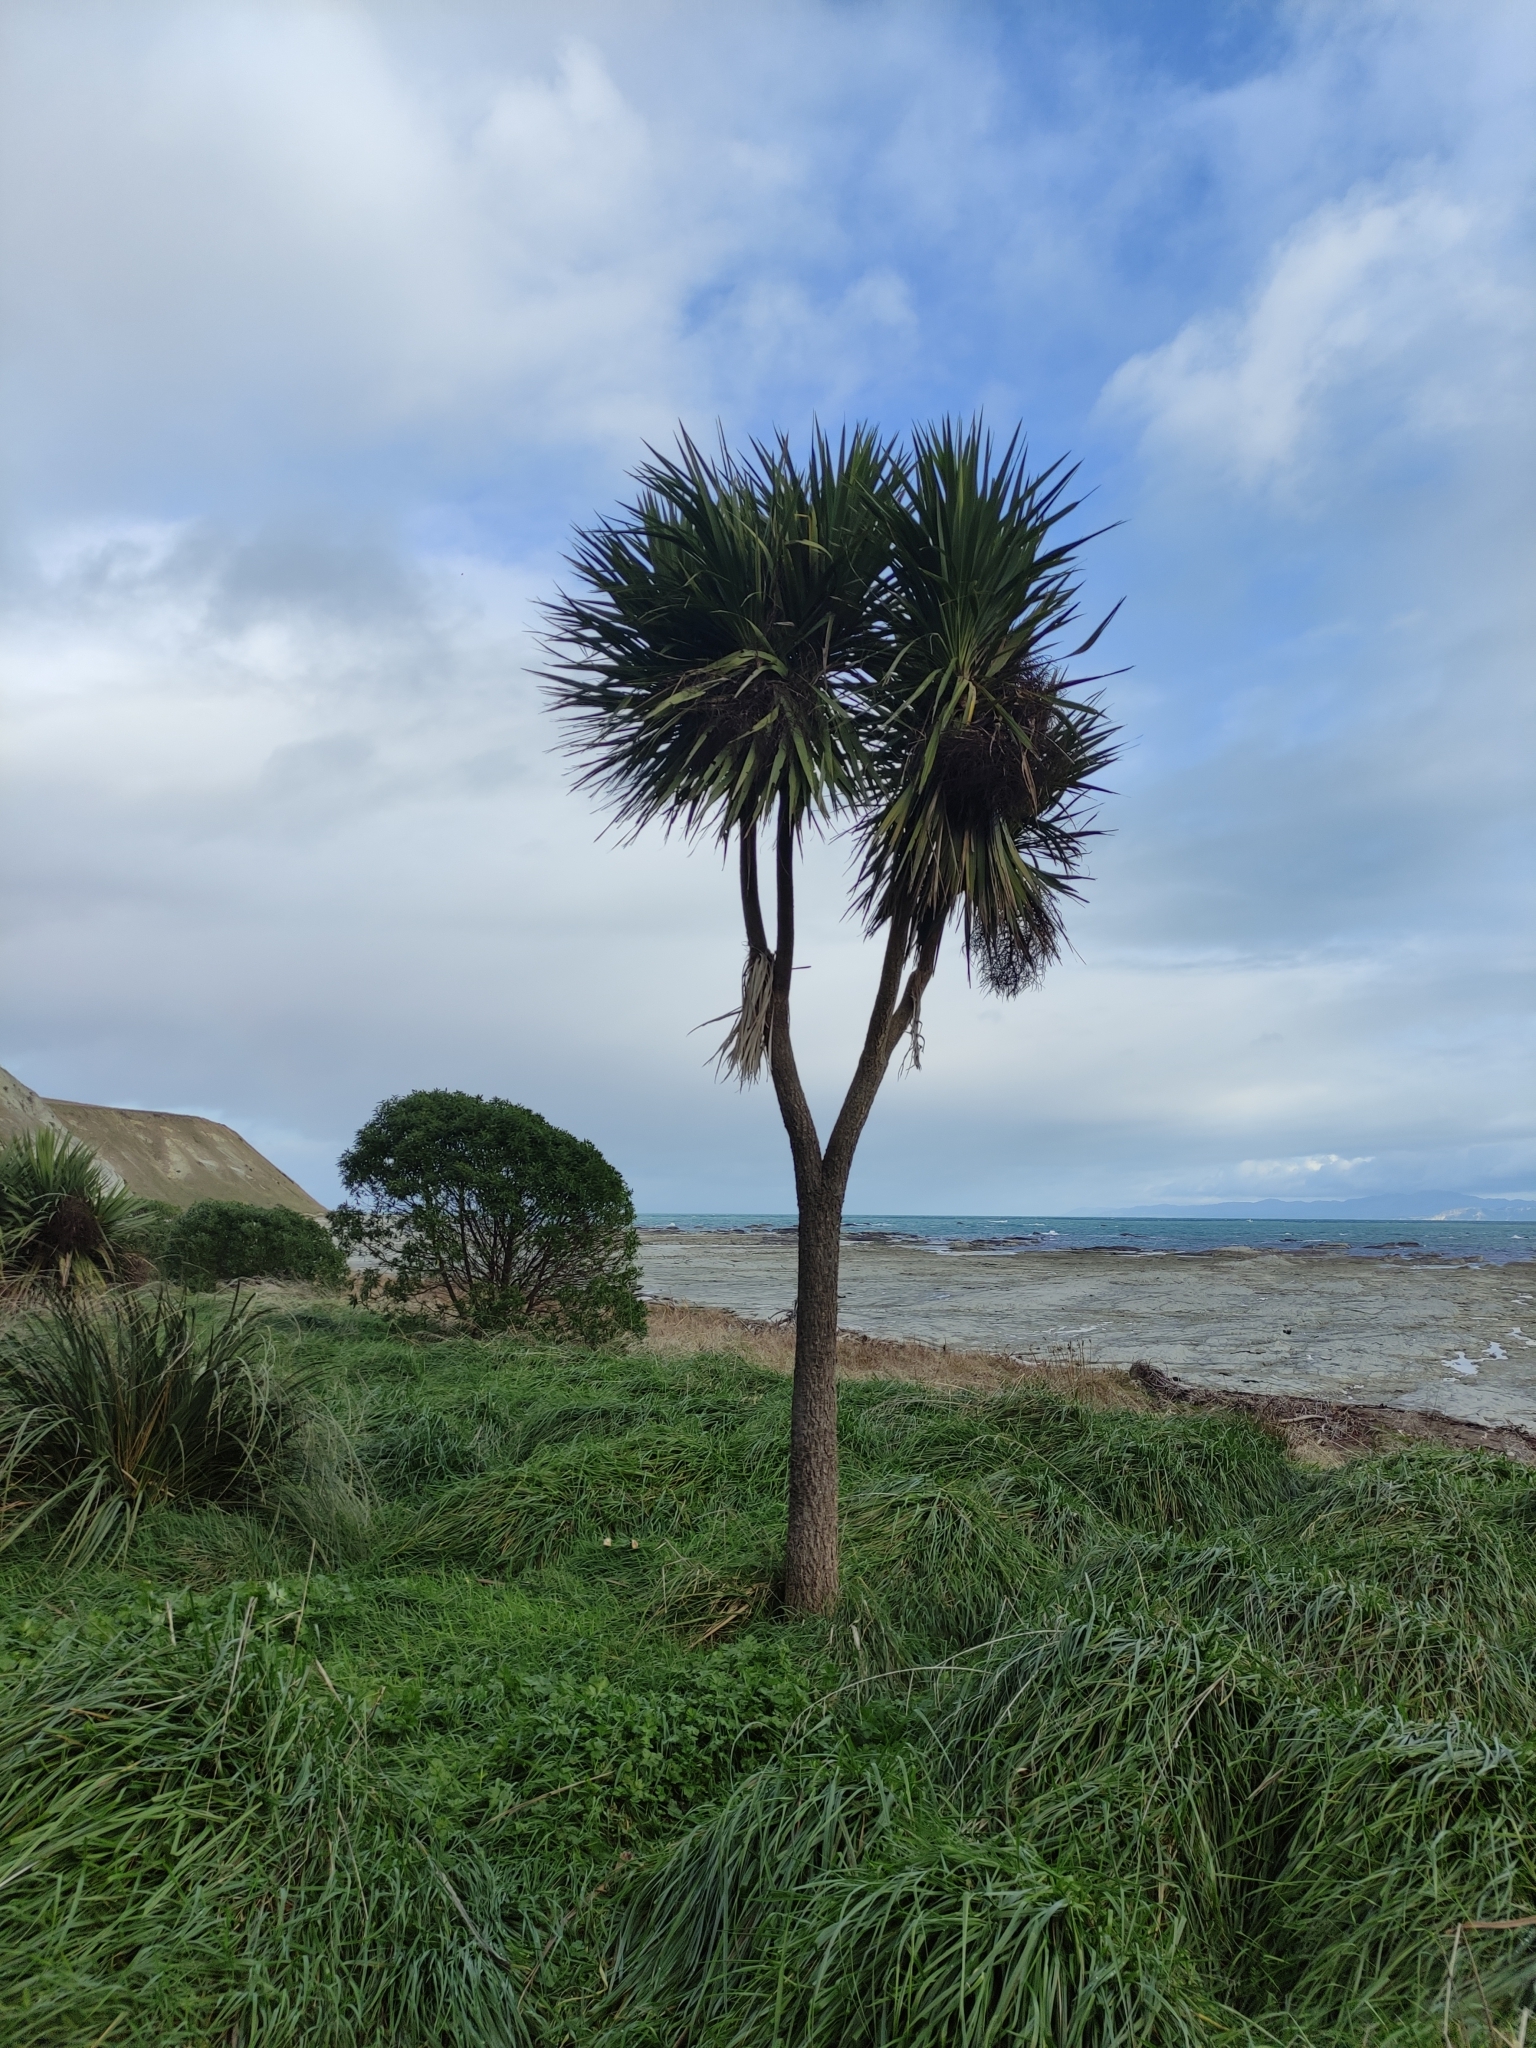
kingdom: Plantae
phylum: Tracheophyta
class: Liliopsida
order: Asparagales
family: Asparagaceae
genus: Cordyline
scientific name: Cordyline australis
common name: Cabbage-palm
